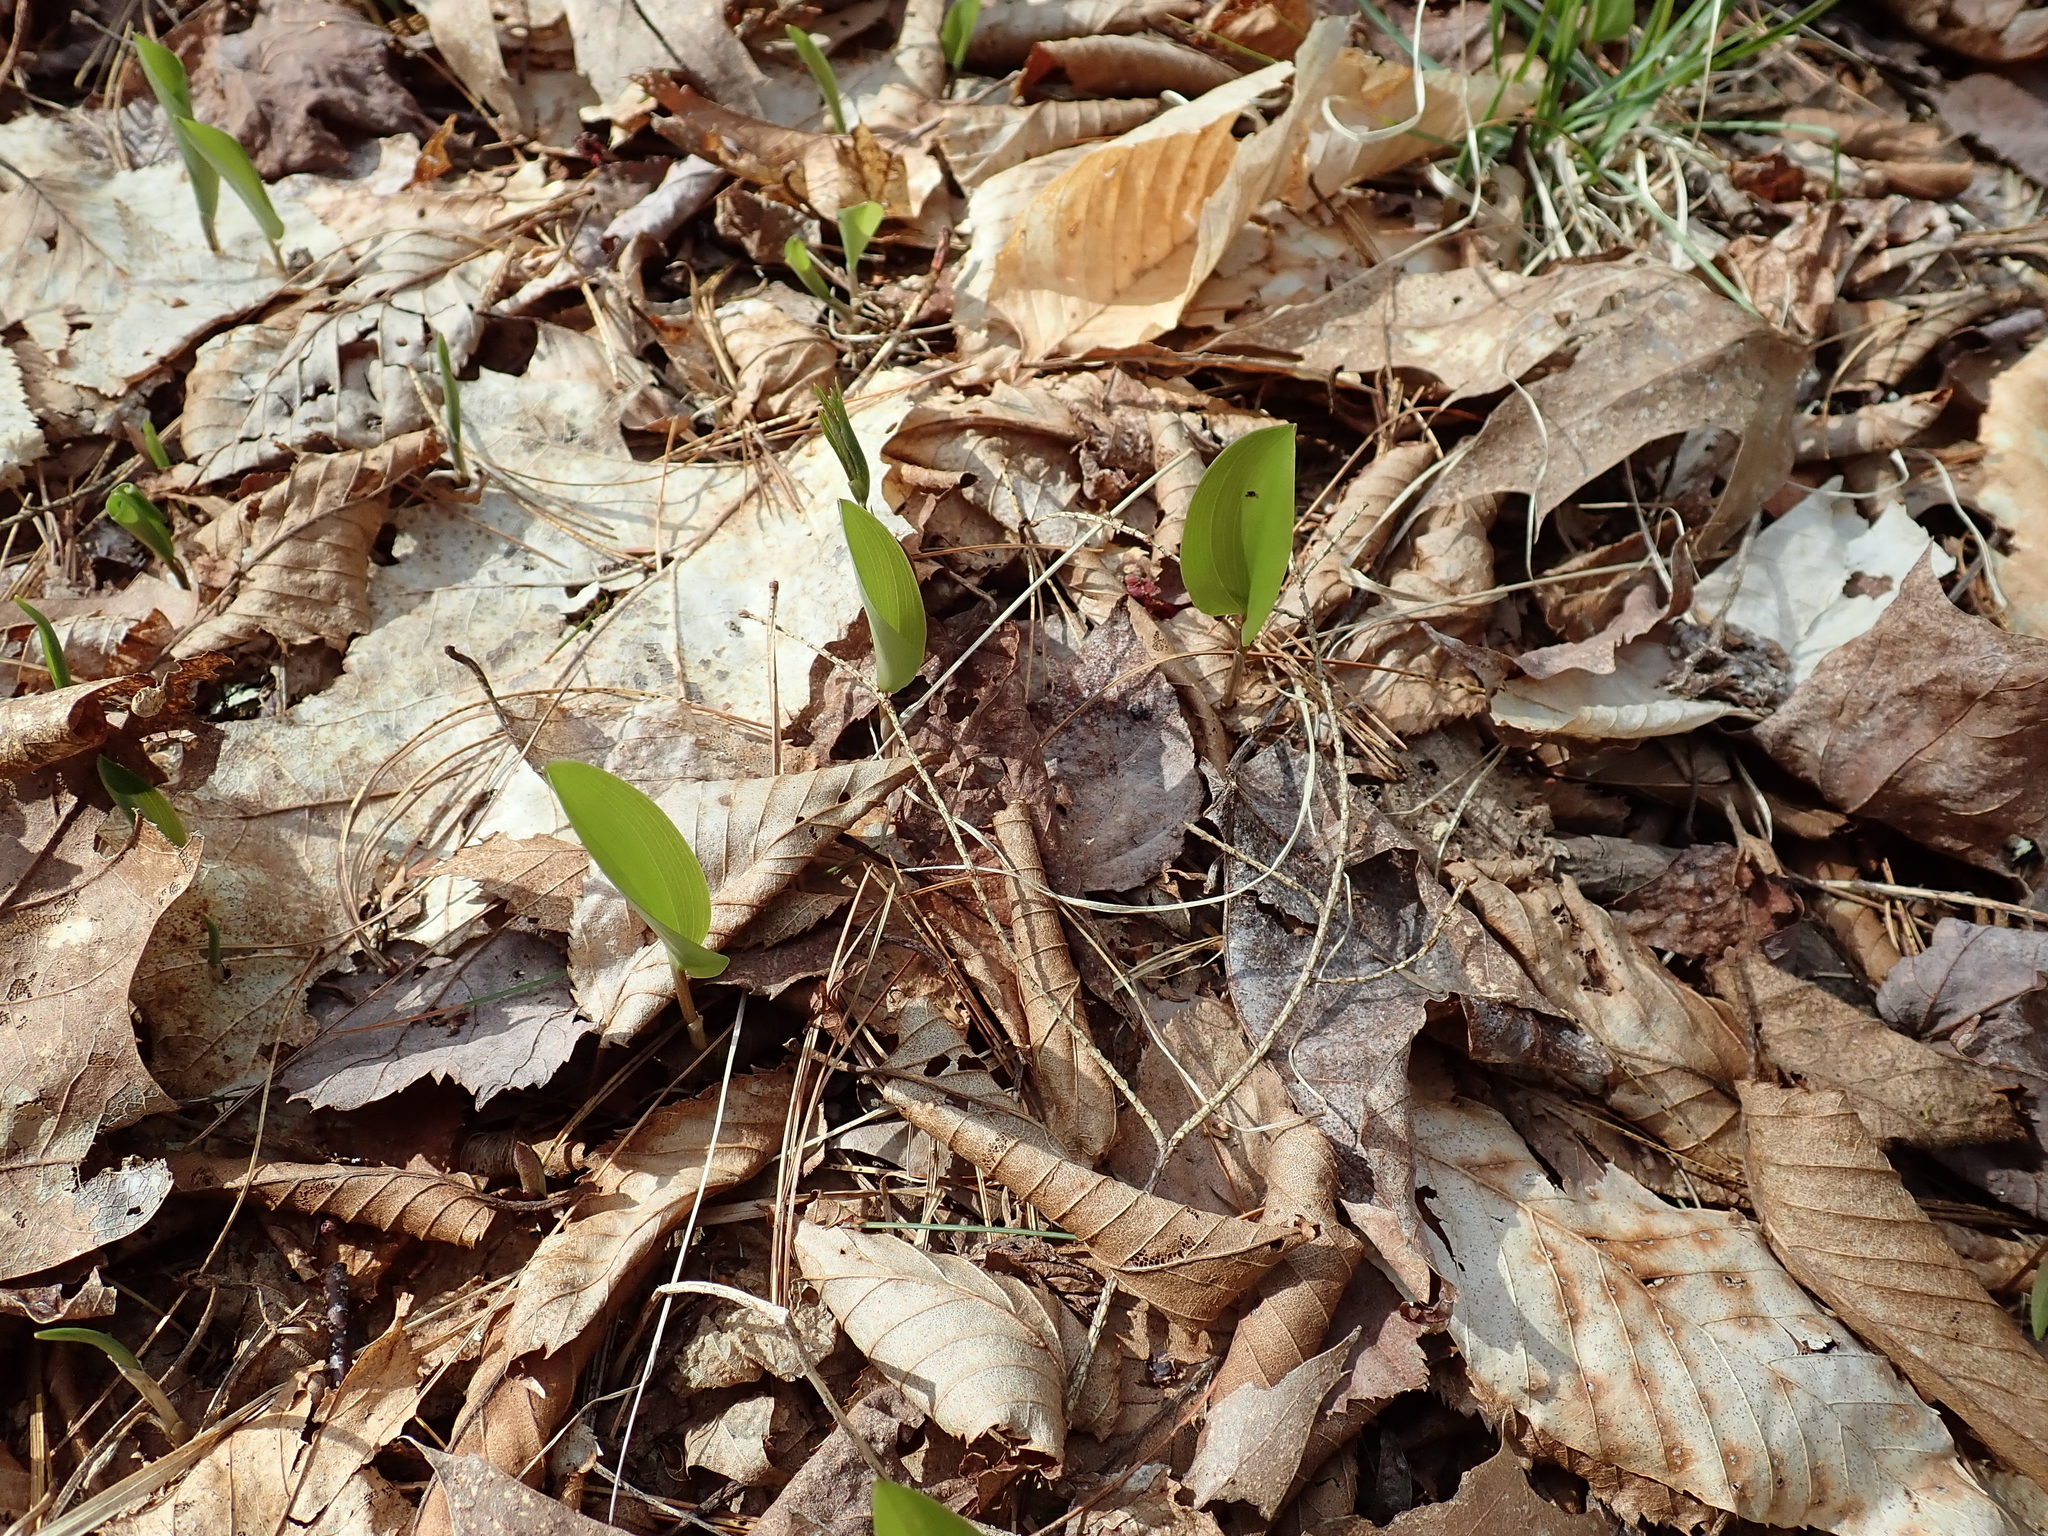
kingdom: Plantae
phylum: Tracheophyta
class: Liliopsida
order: Asparagales
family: Asparagaceae
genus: Maianthemum
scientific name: Maianthemum canadense
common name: False lily-of-the-valley
